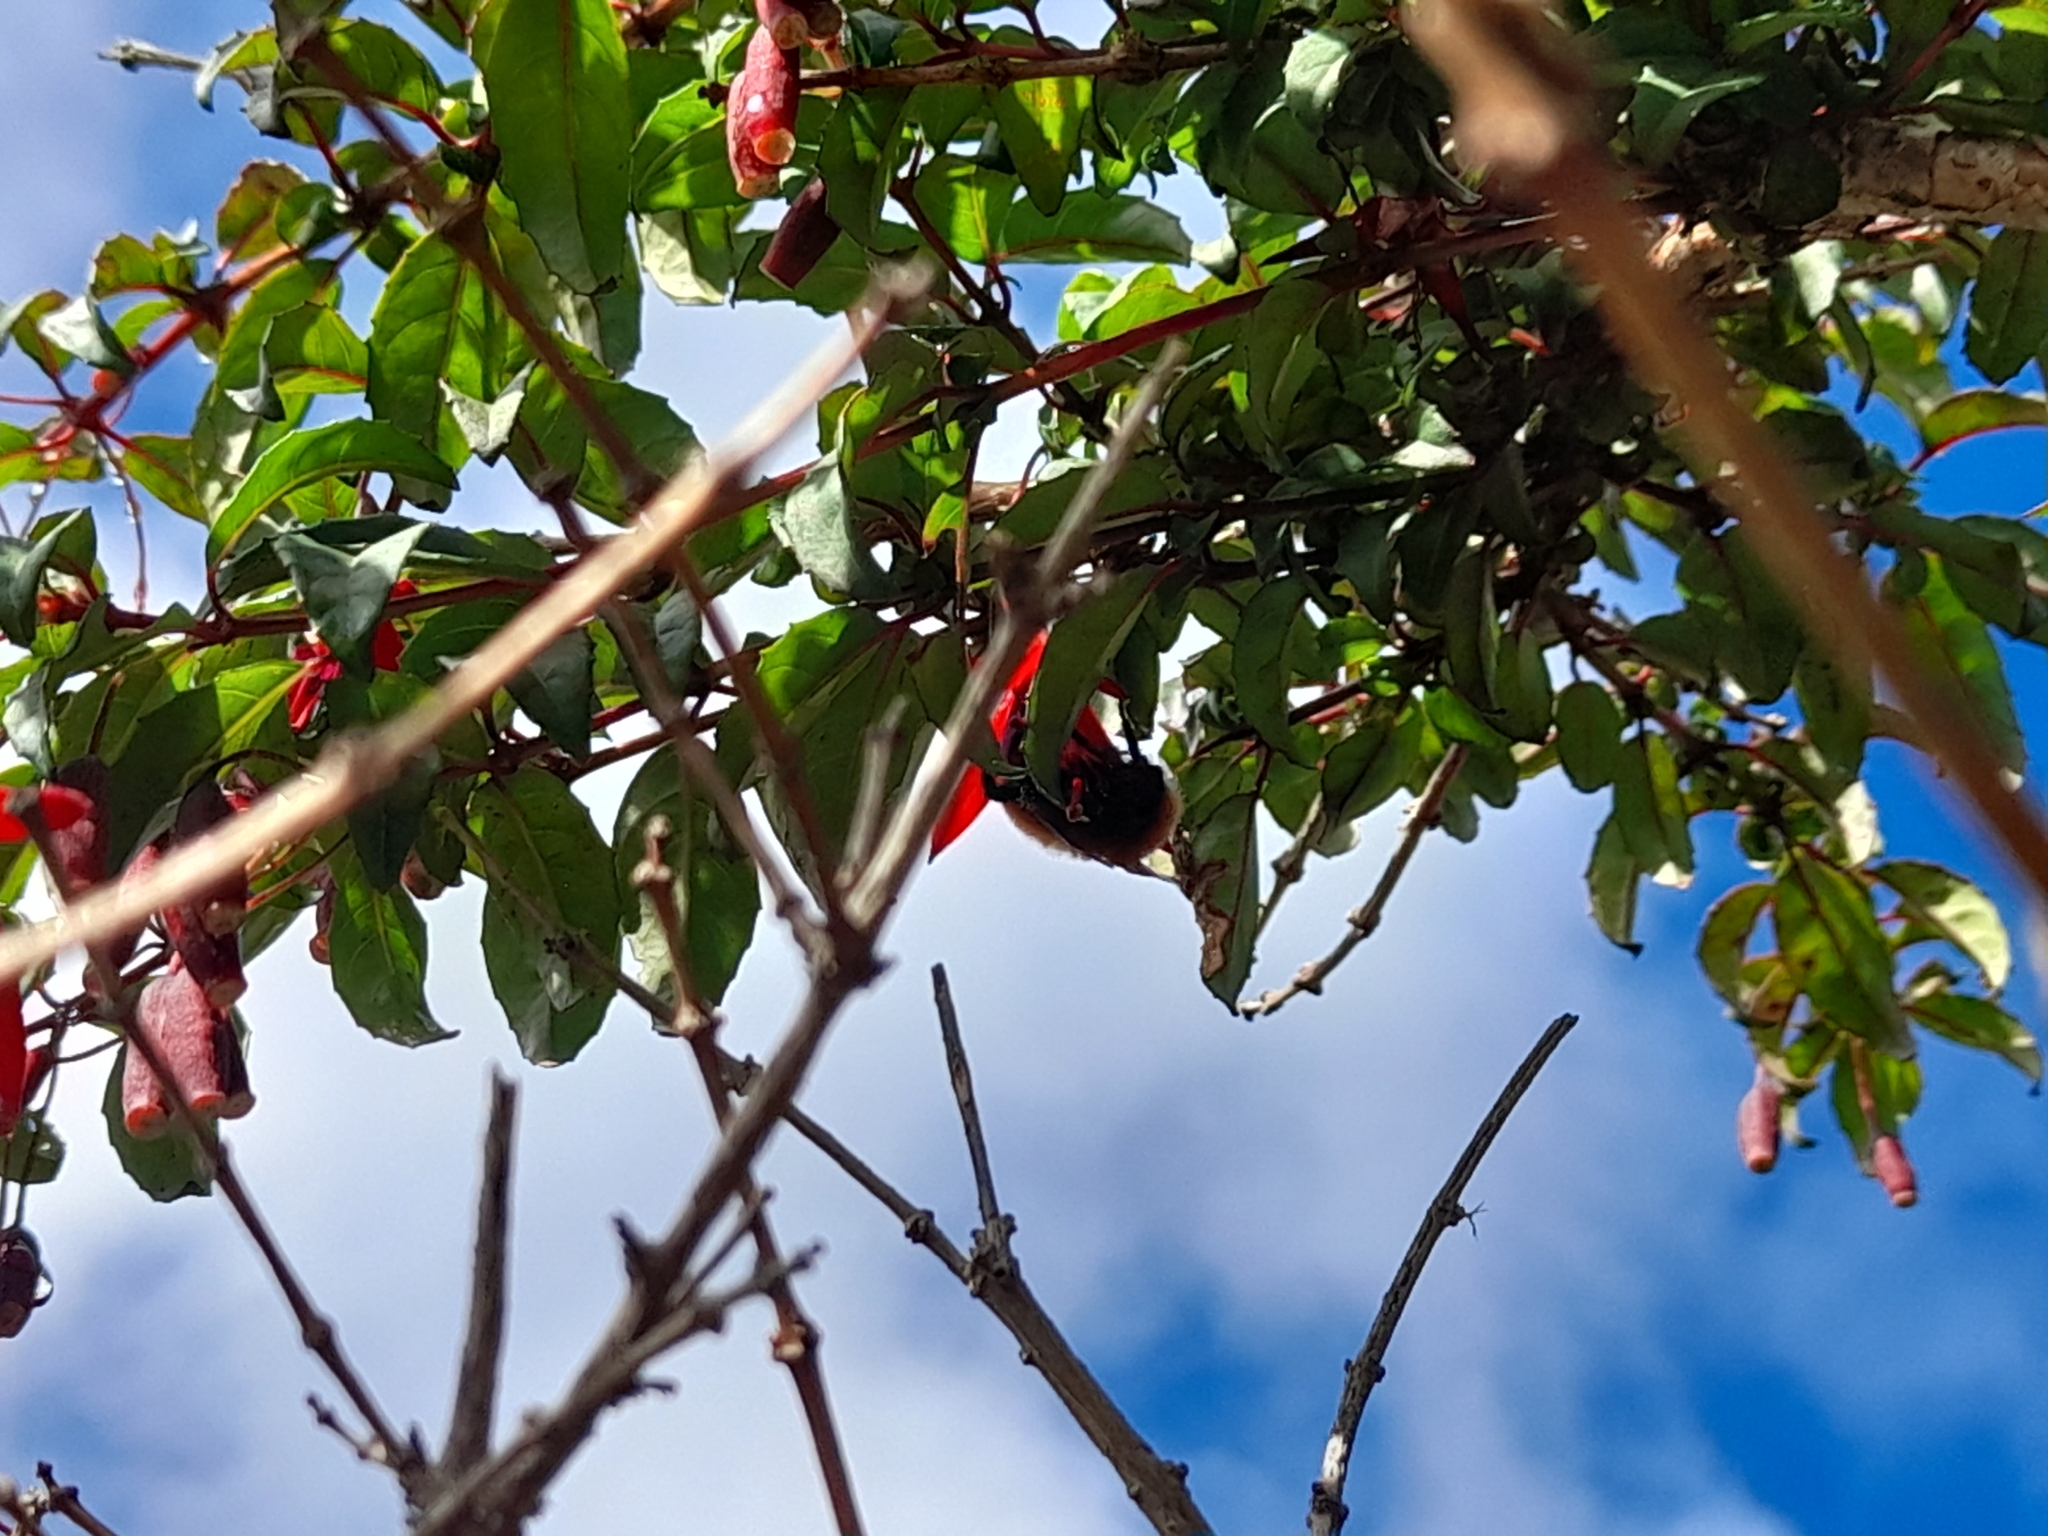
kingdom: Animalia
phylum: Arthropoda
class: Insecta
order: Hymenoptera
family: Apidae
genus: Bombus
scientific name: Bombus dahlbomii
